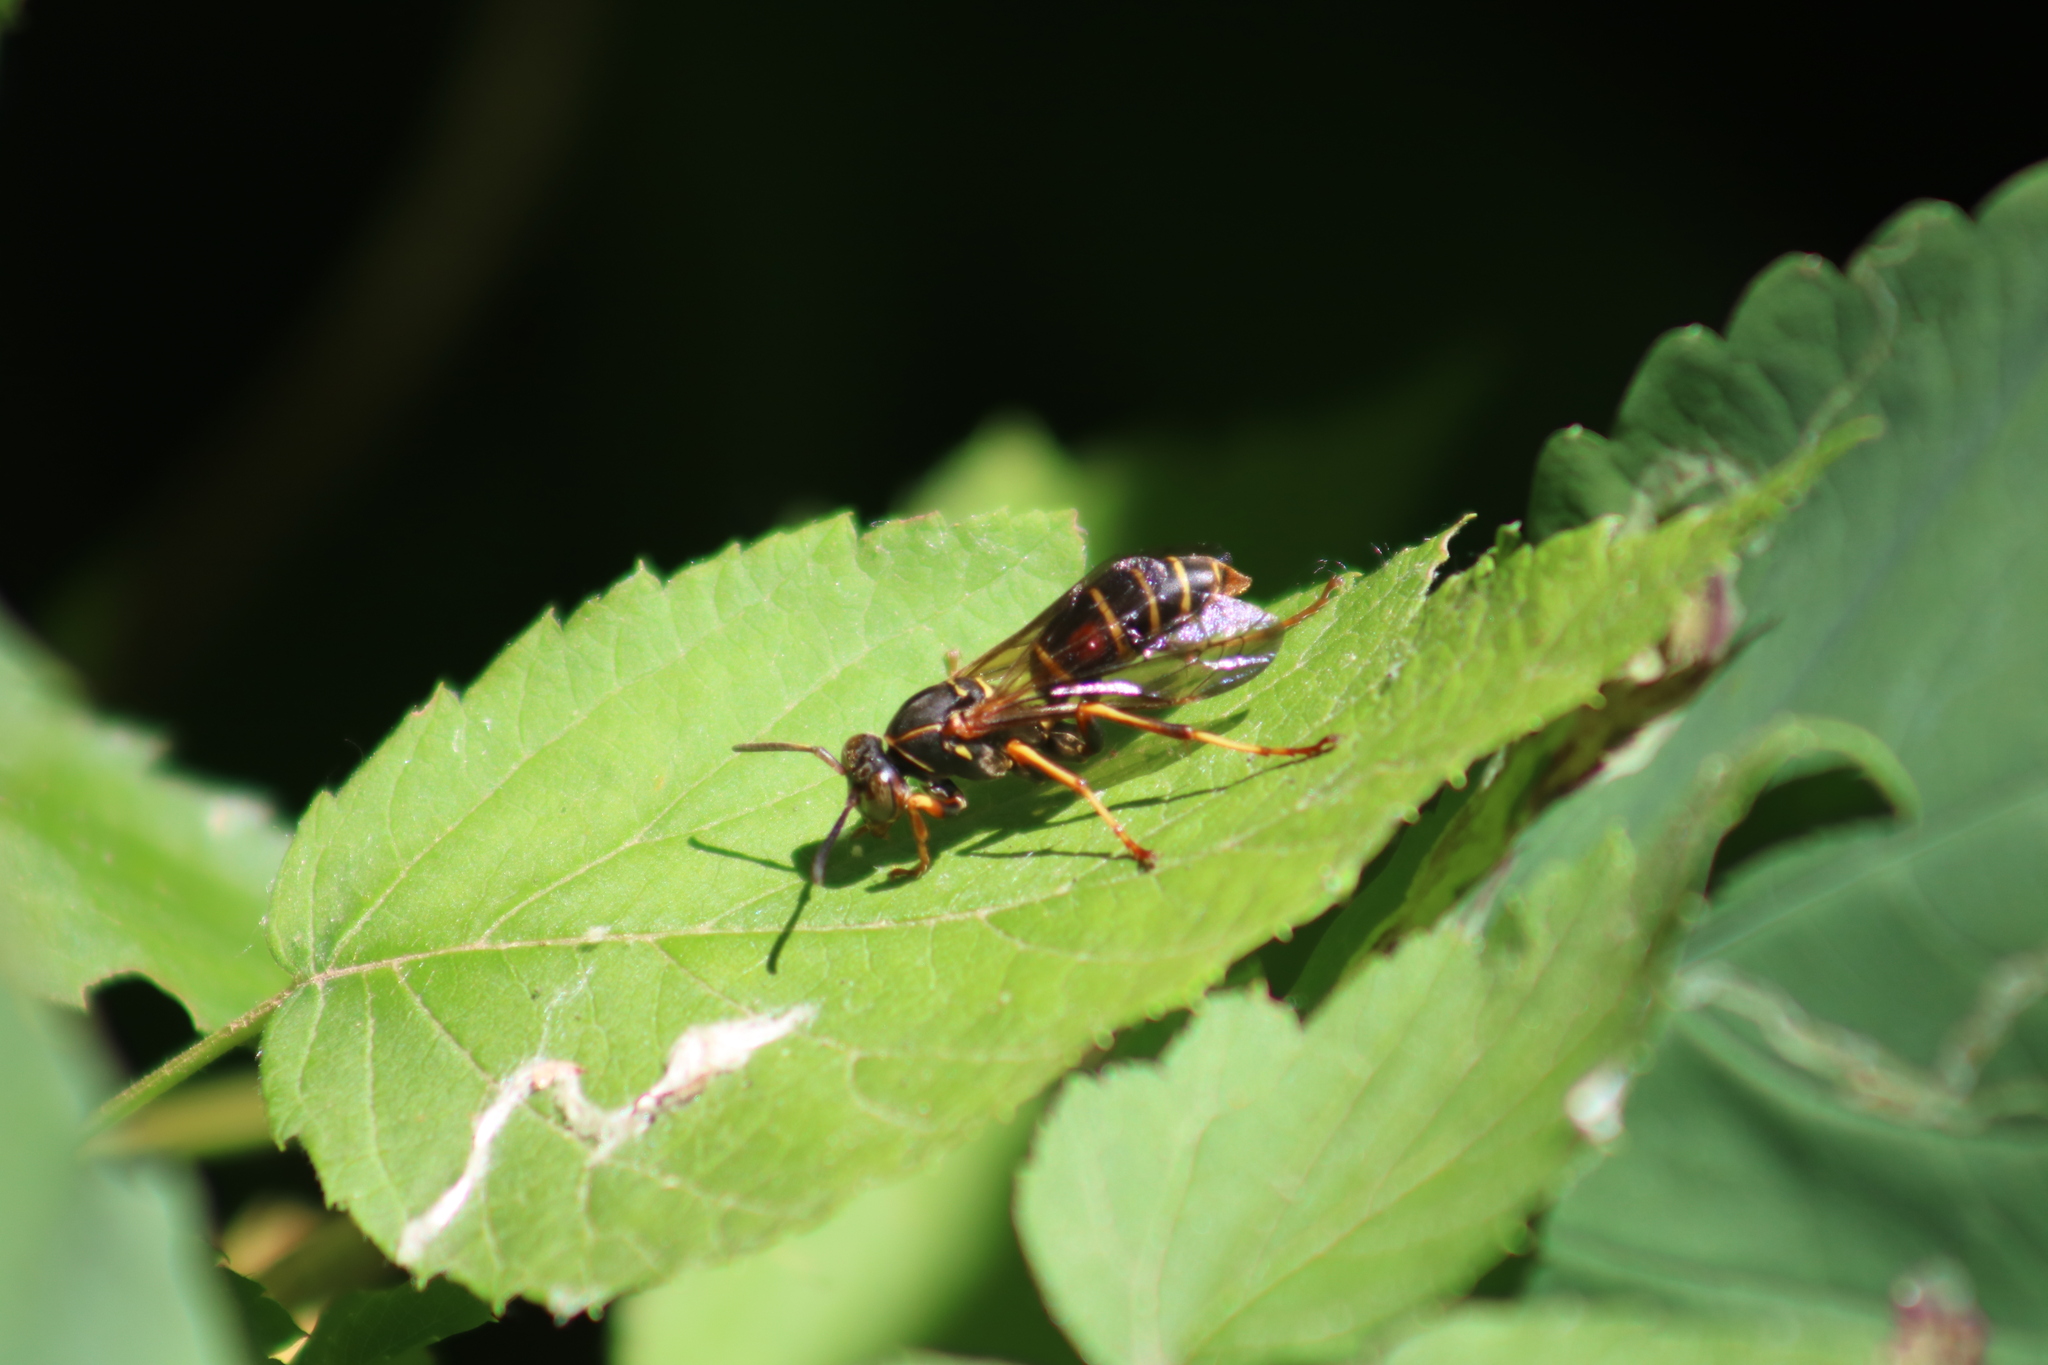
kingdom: Animalia
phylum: Arthropoda
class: Insecta
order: Hymenoptera
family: Eumenidae
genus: Polistes
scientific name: Polistes fuscatus
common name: Dark paper wasp
